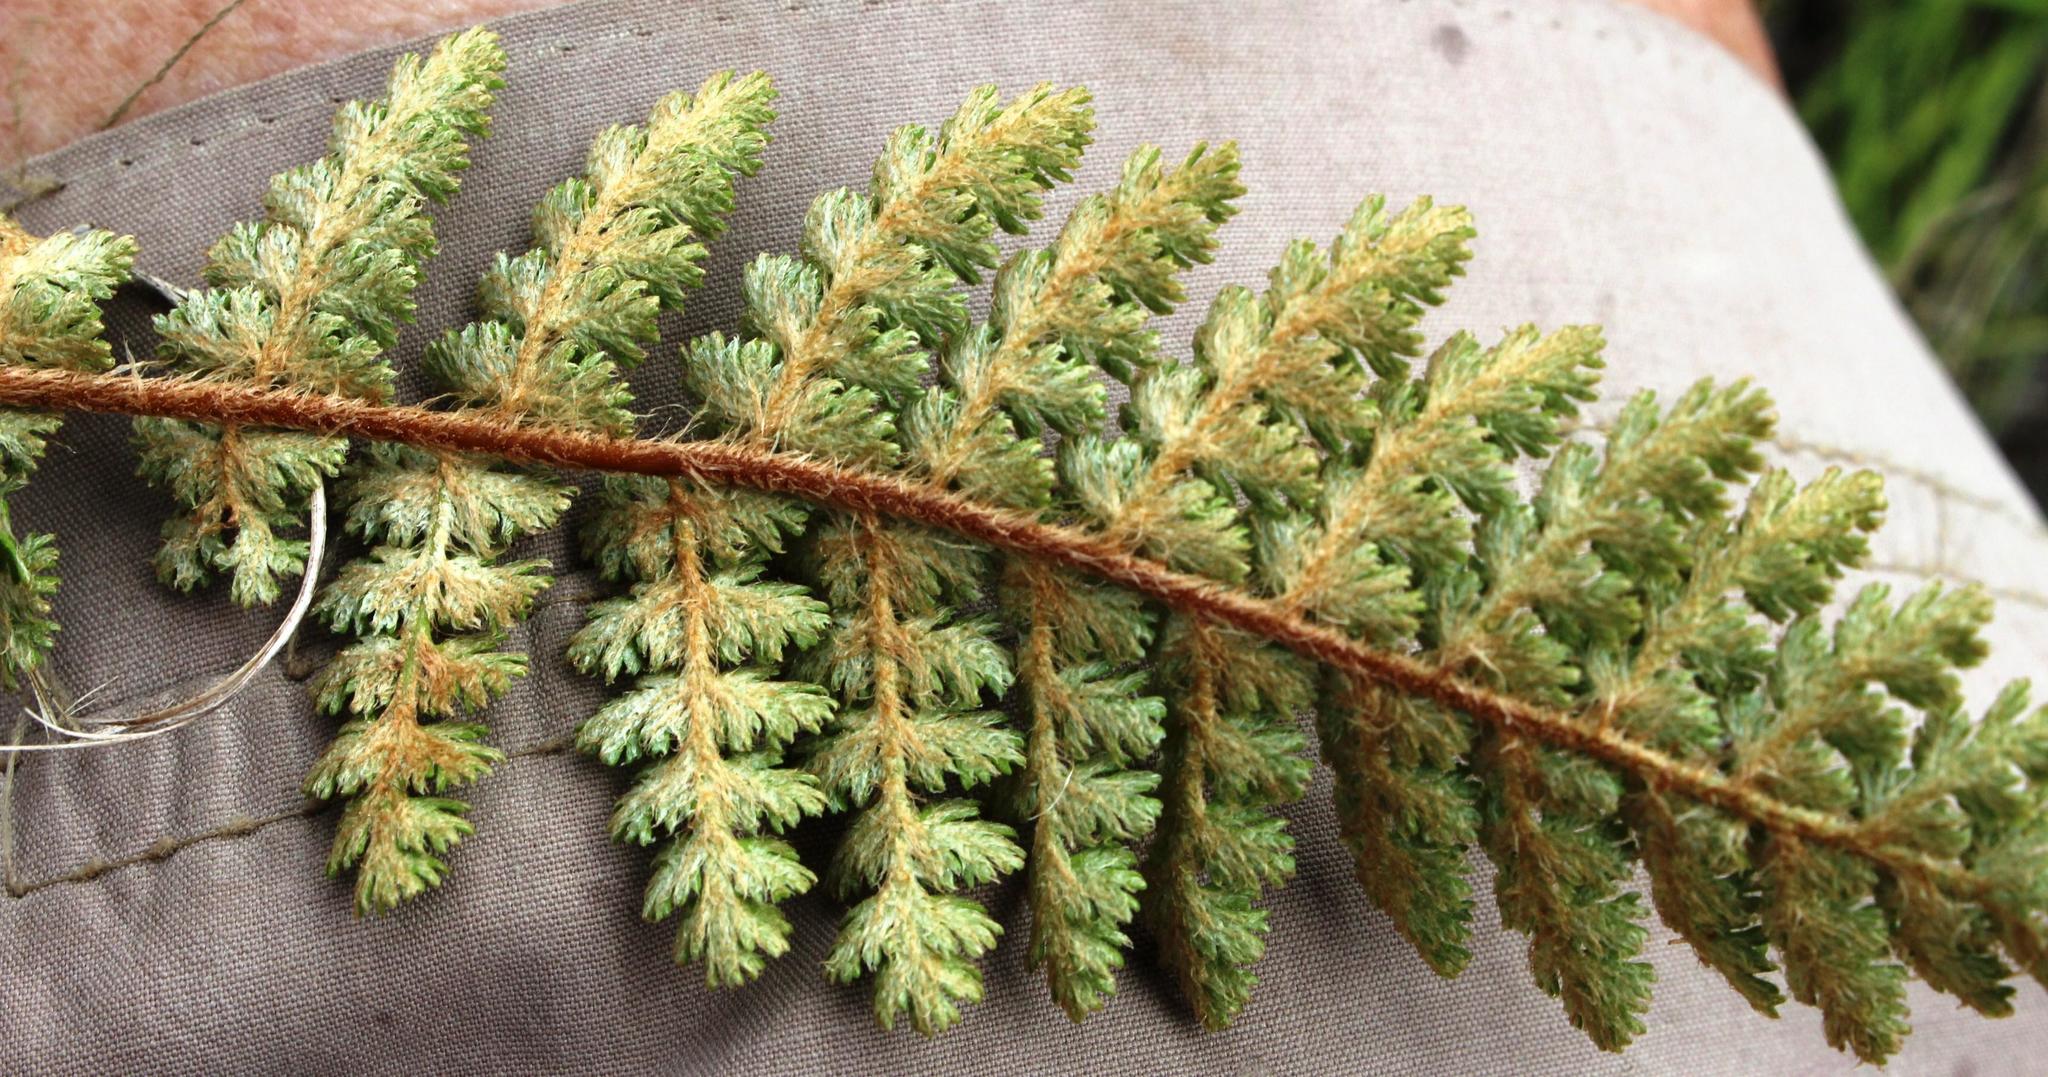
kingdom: Plantae
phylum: Tracheophyta
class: Polypodiopsida
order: Schizaeales
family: Anemiaceae
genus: Anemia
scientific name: Anemia caffrorum
